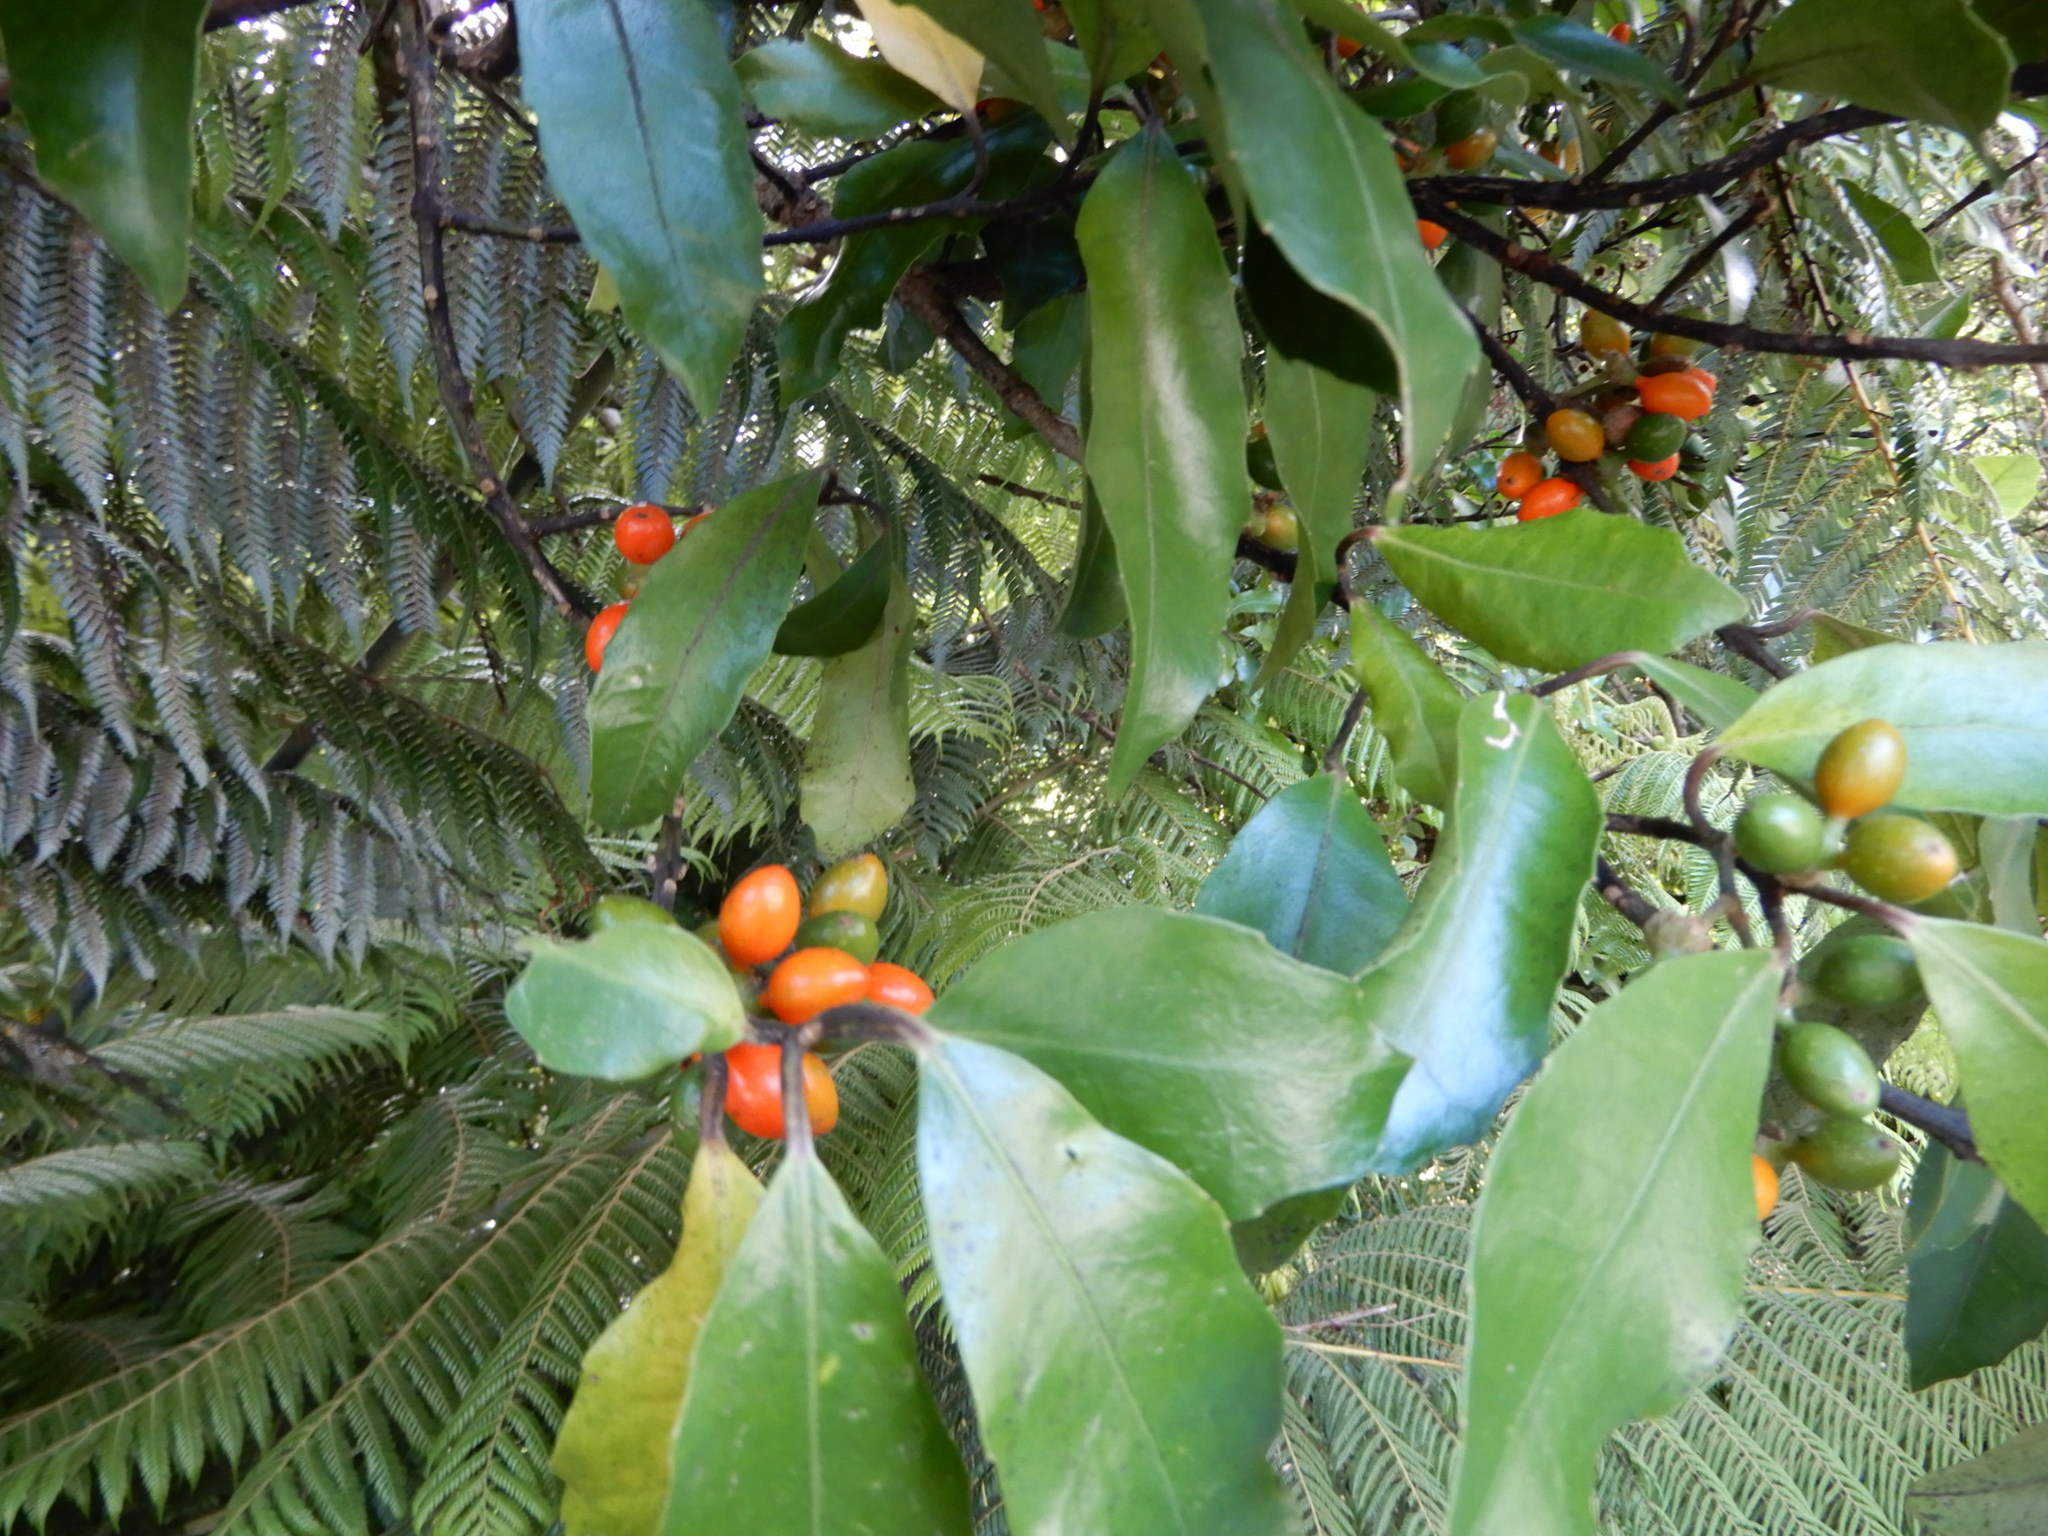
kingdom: Plantae
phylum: Tracheophyta
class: Magnoliopsida
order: Laurales
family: Monimiaceae
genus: Hedycarya
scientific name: Hedycarya arborea
